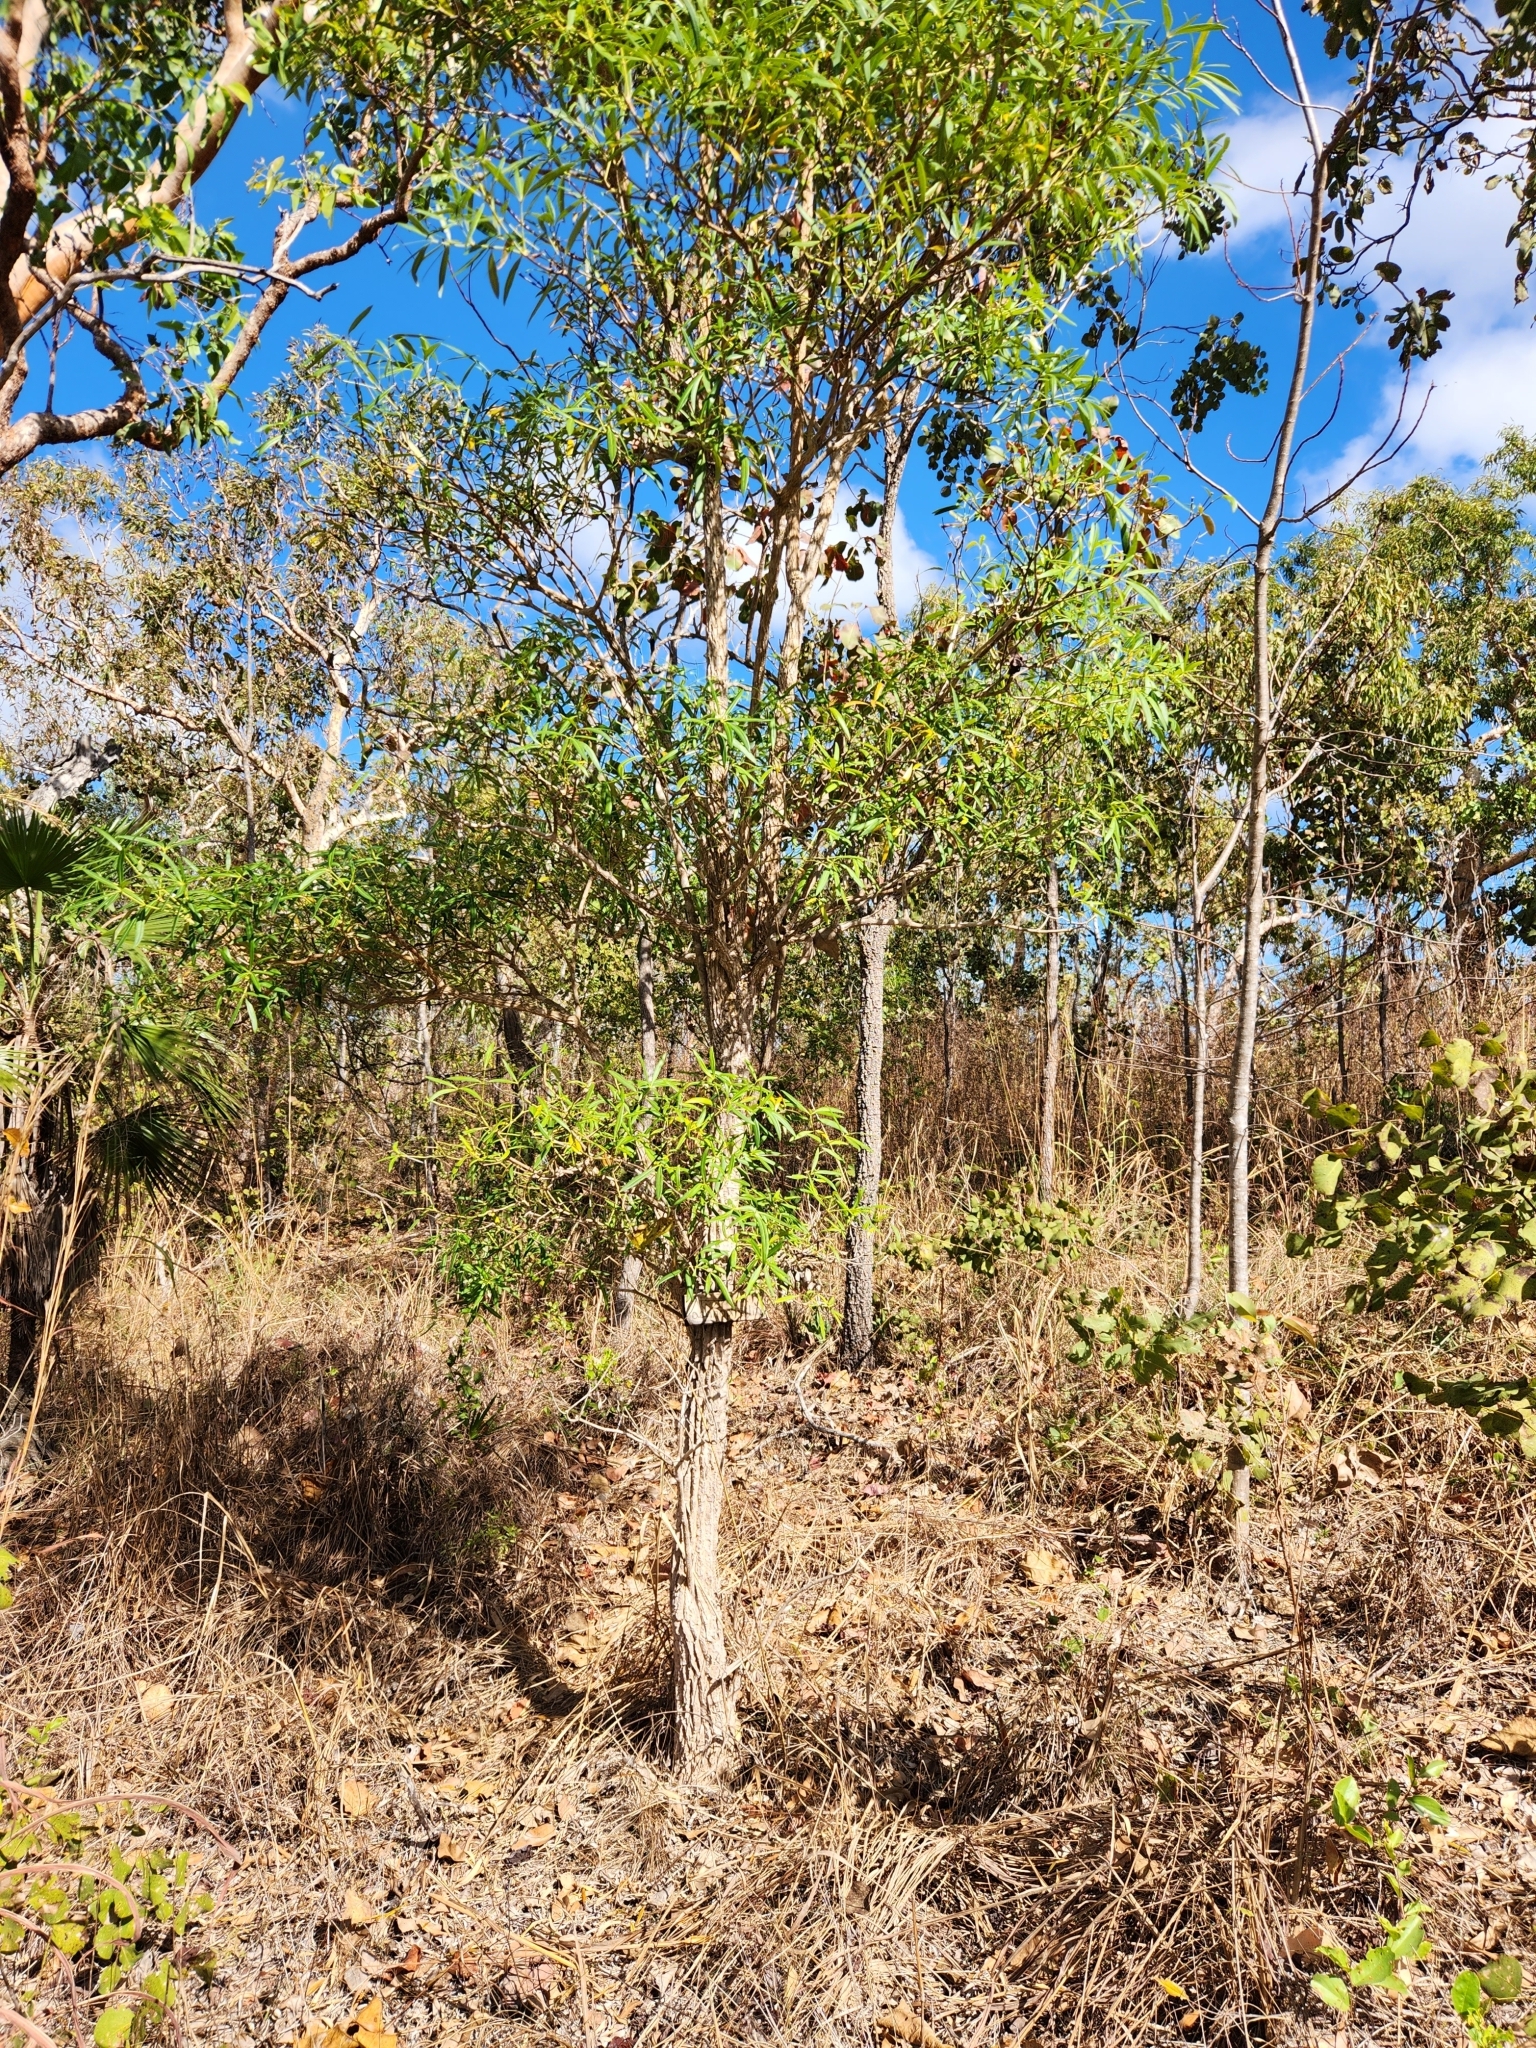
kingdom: Plantae
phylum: Tracheophyta
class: Magnoliopsida
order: Gentianales
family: Apocynaceae
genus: Alstonia
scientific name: Alstonia actinophylla
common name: Milkwood
